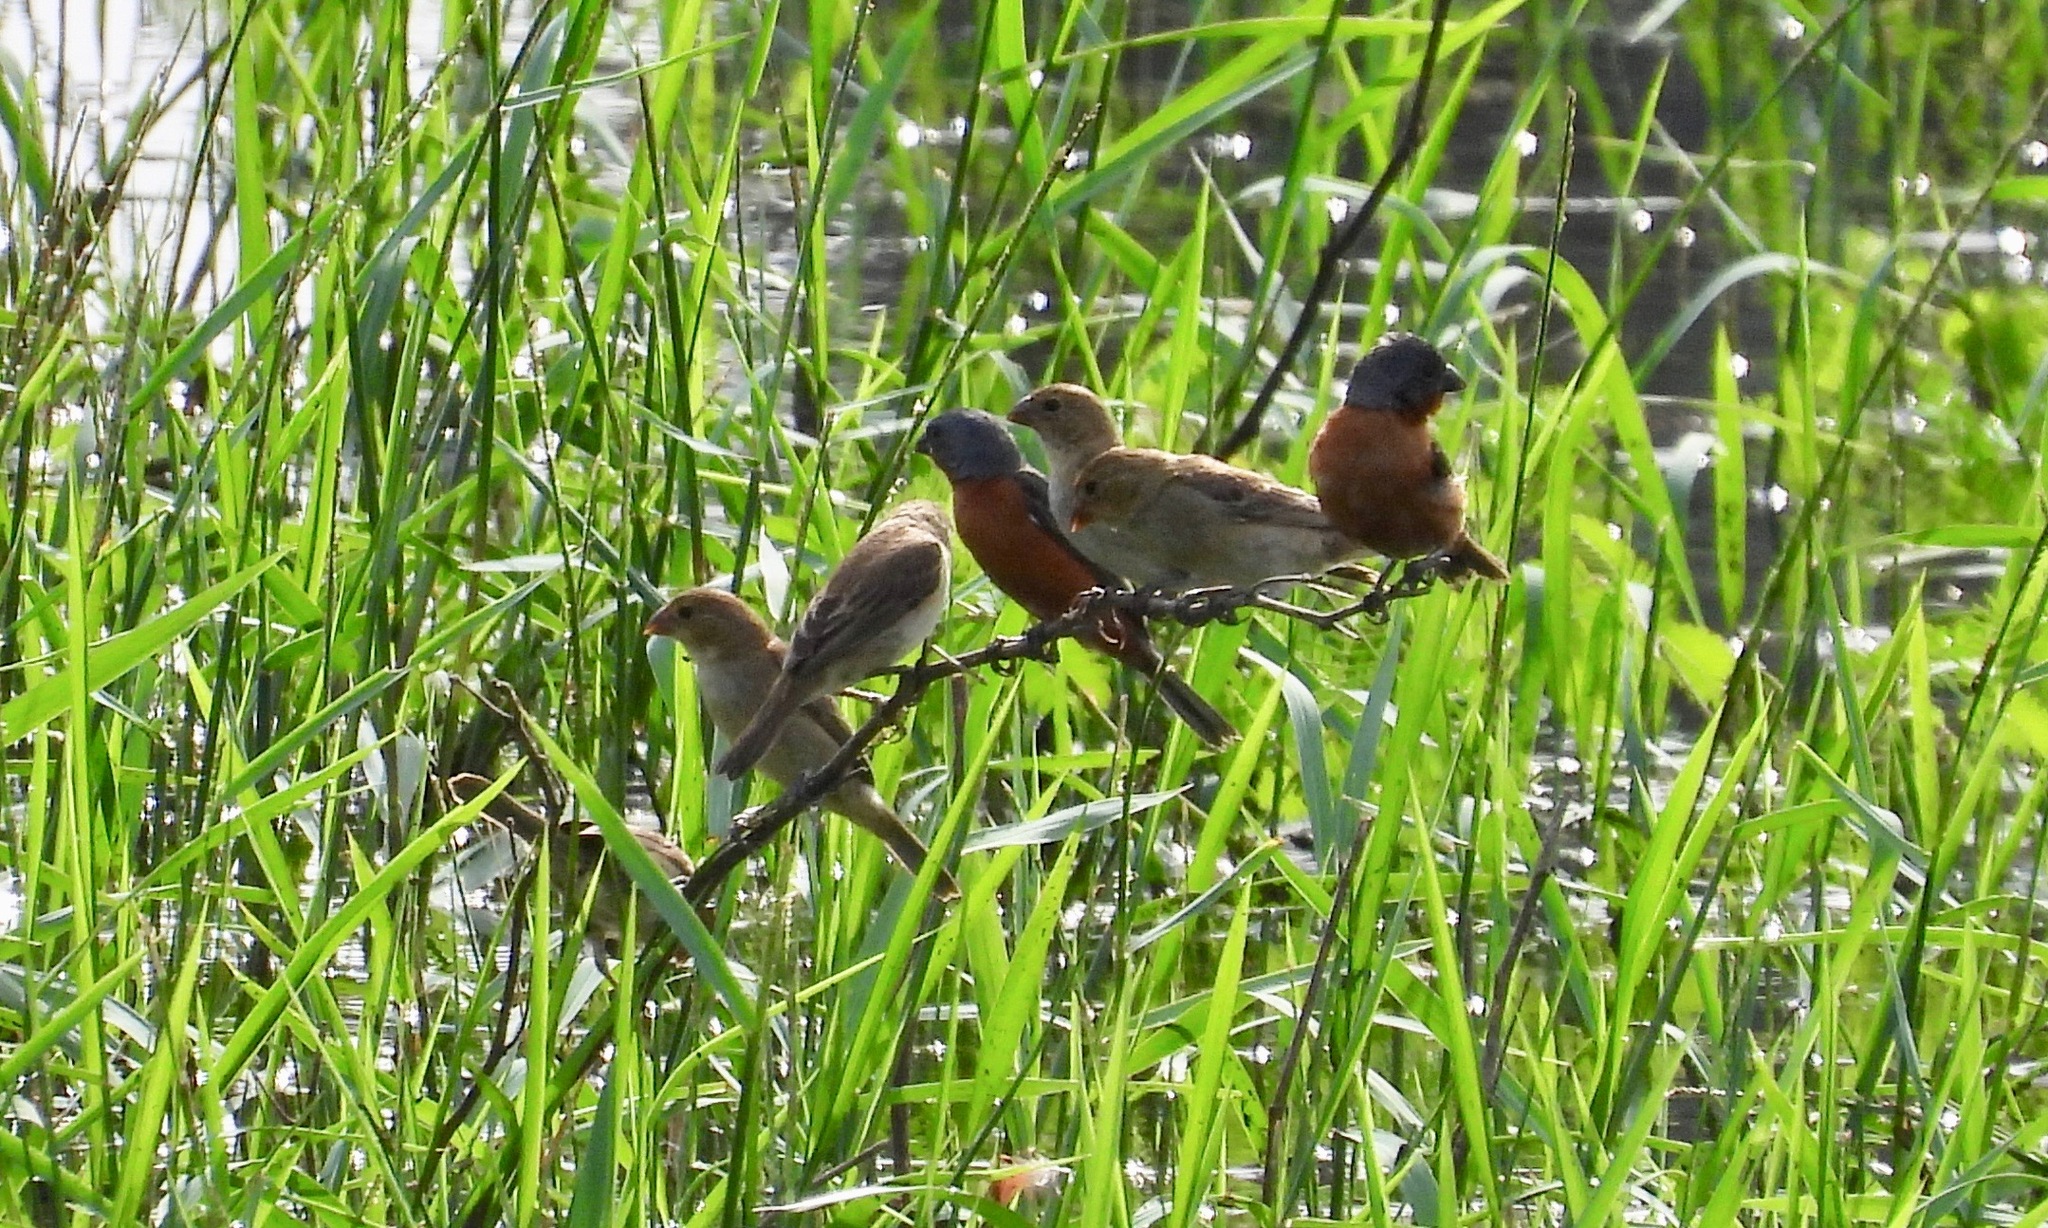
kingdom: Animalia
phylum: Chordata
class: Aves
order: Passeriformes
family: Thraupidae
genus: Sporophila
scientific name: Sporophila minuta
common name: Ruddy-breasted seedeater
